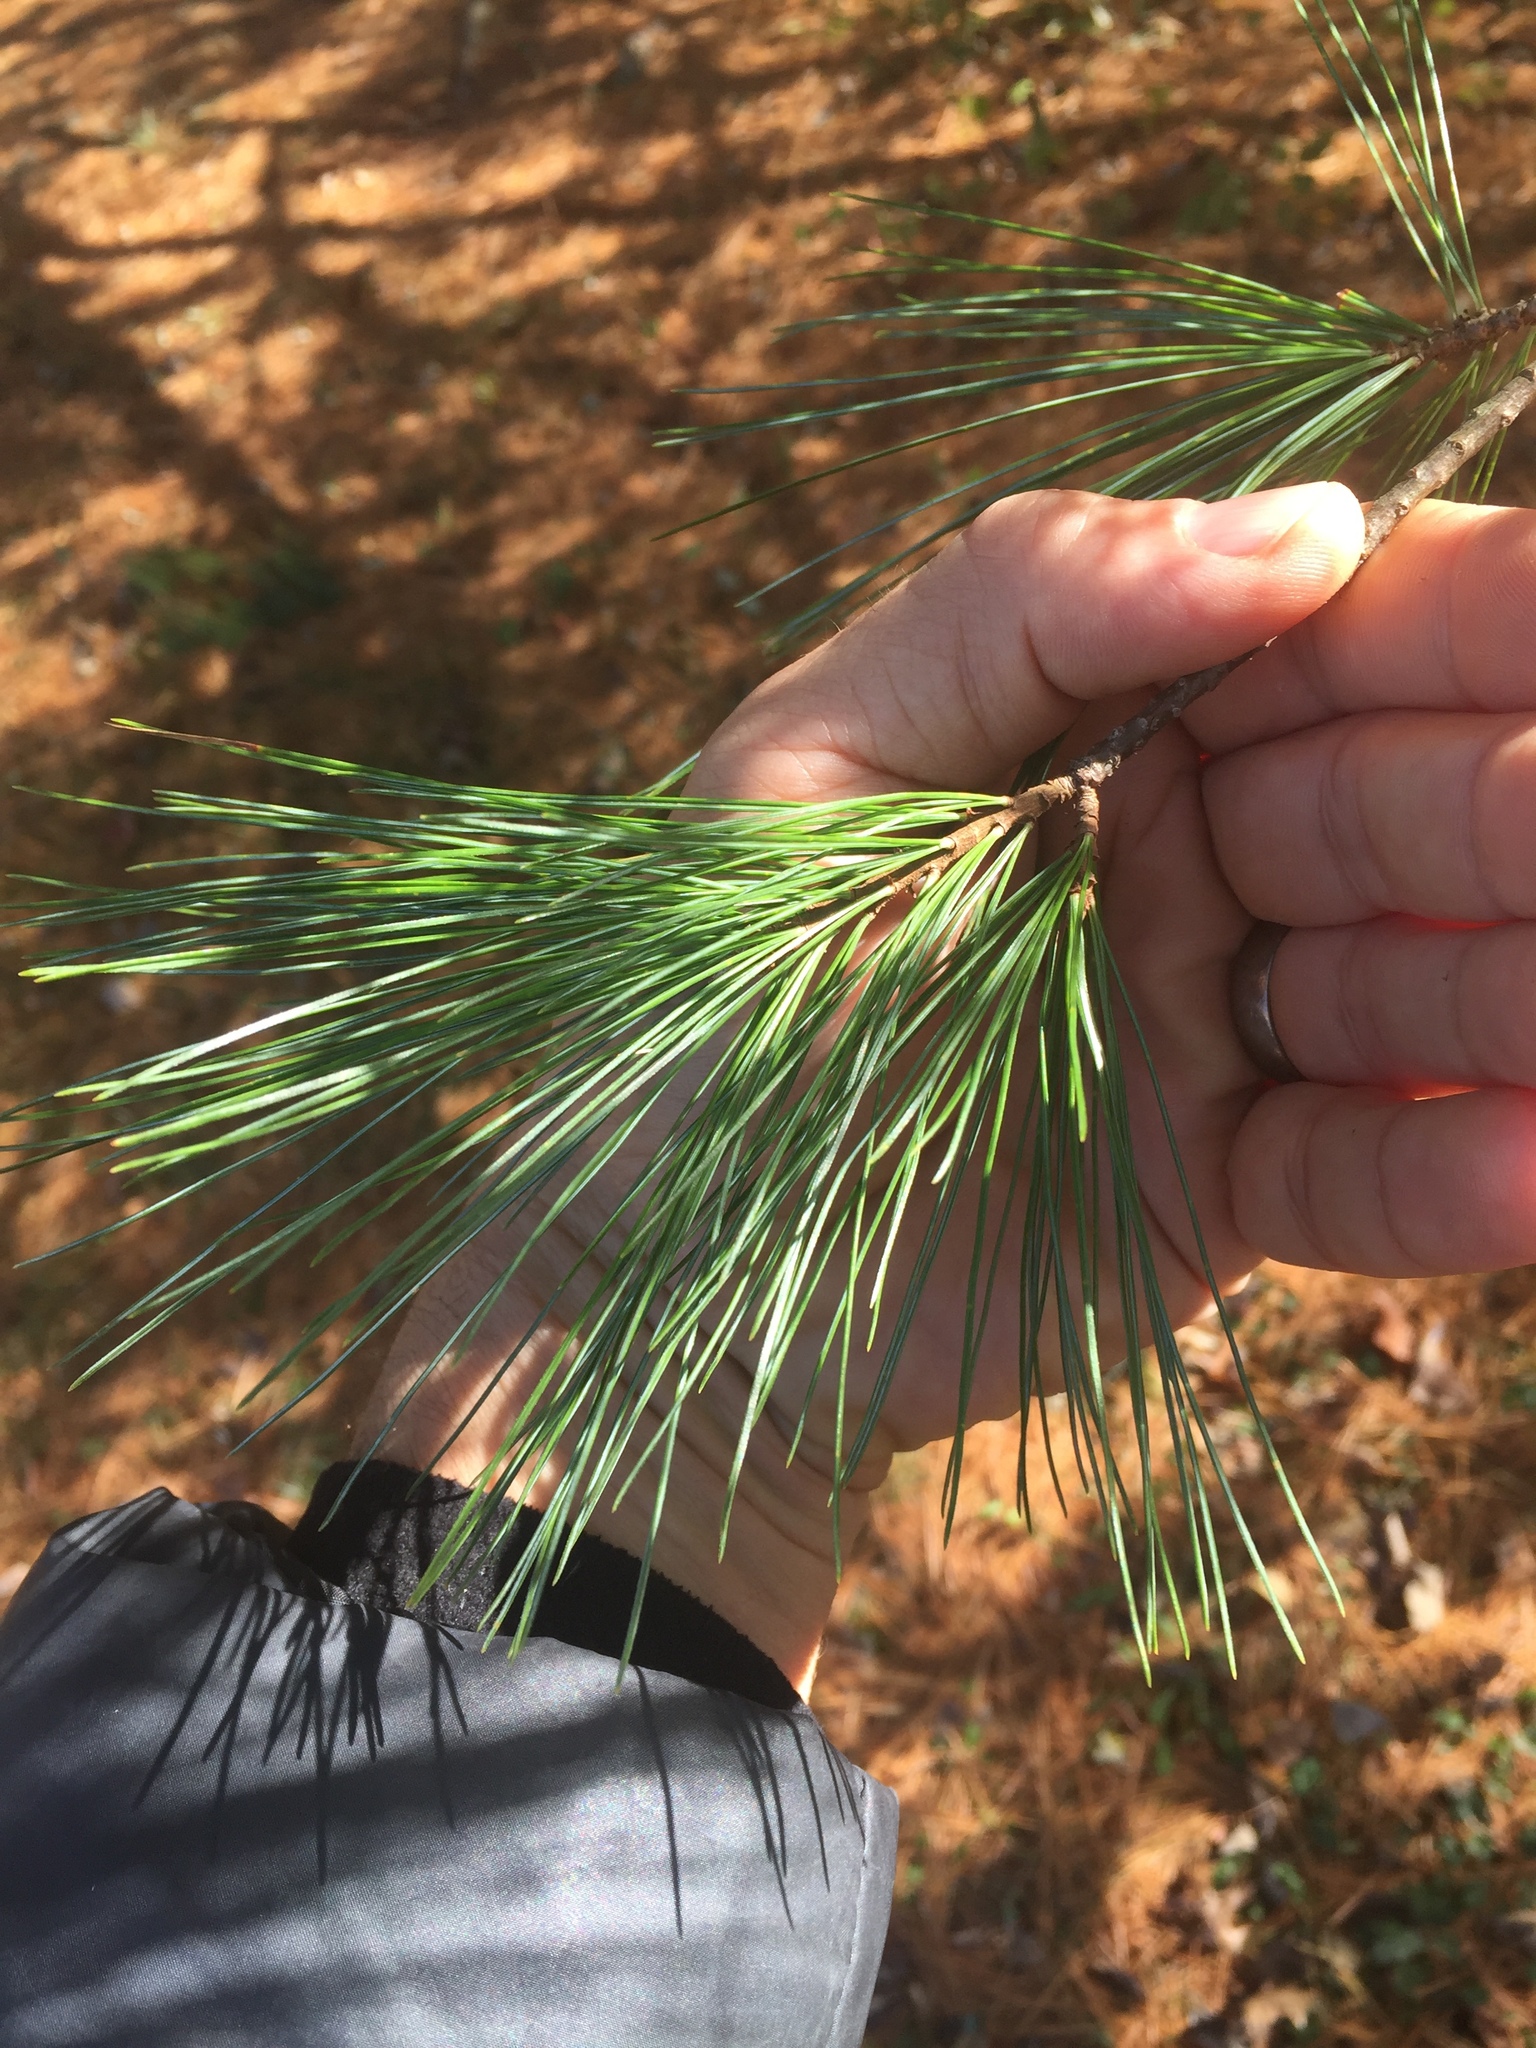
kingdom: Plantae
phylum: Tracheophyta
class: Pinopsida
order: Pinales
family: Pinaceae
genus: Pinus
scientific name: Pinus strobus
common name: Weymouth pine
